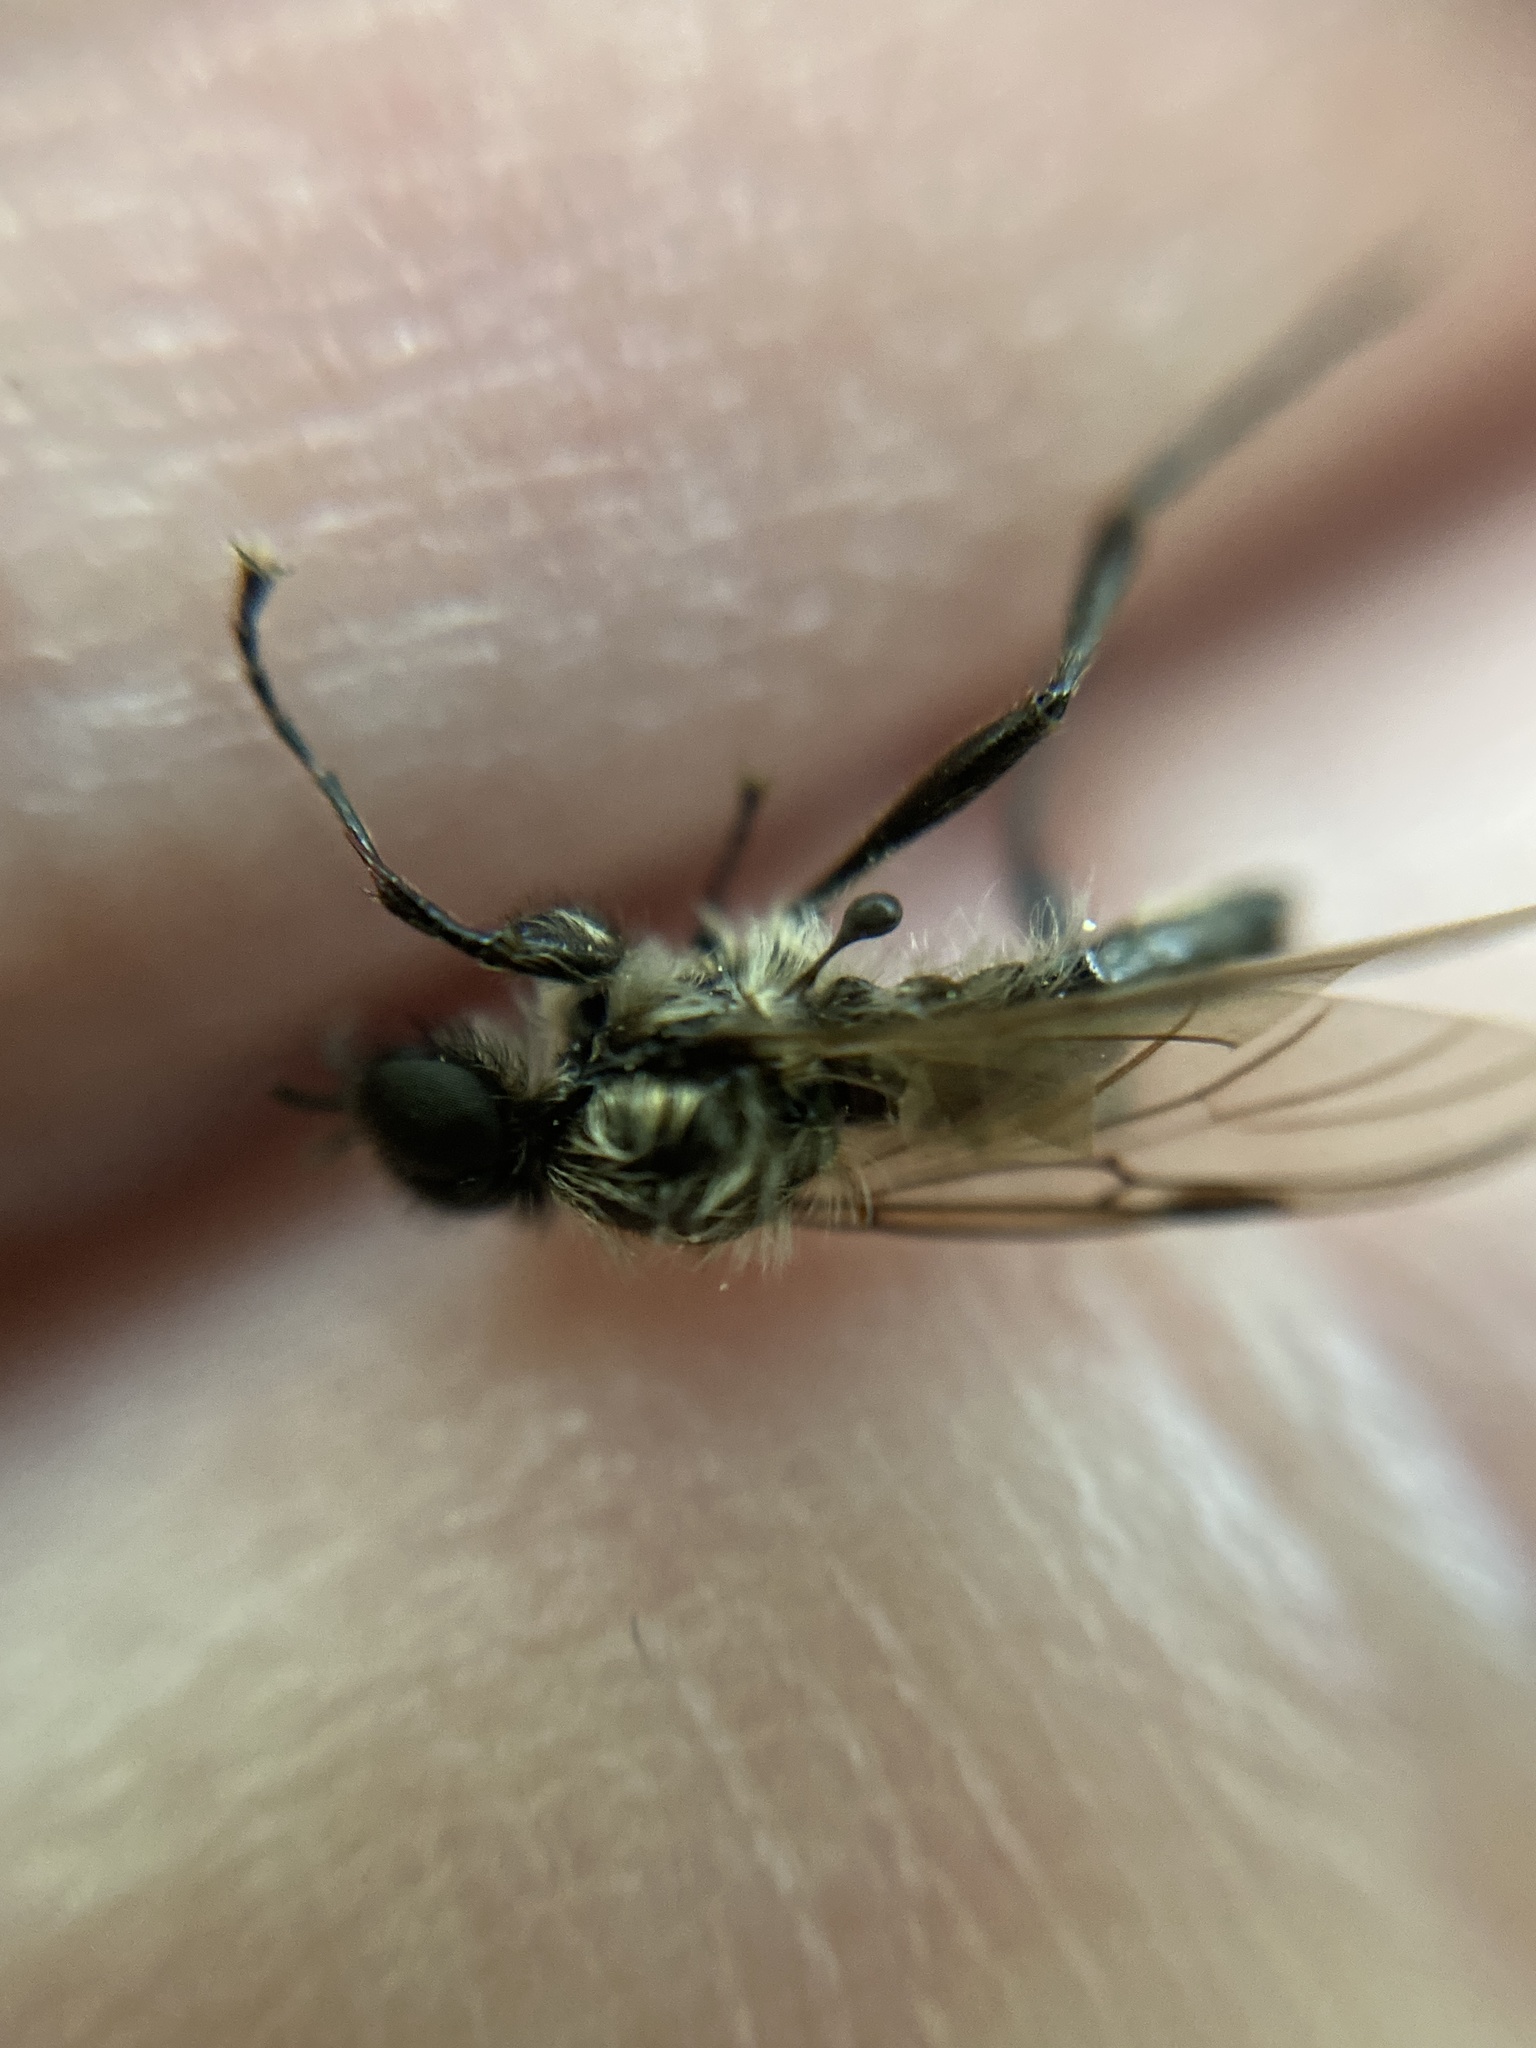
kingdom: Animalia
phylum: Arthropoda
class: Insecta
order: Diptera
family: Bibionidae
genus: Bibio
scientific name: Bibio reticulatus
